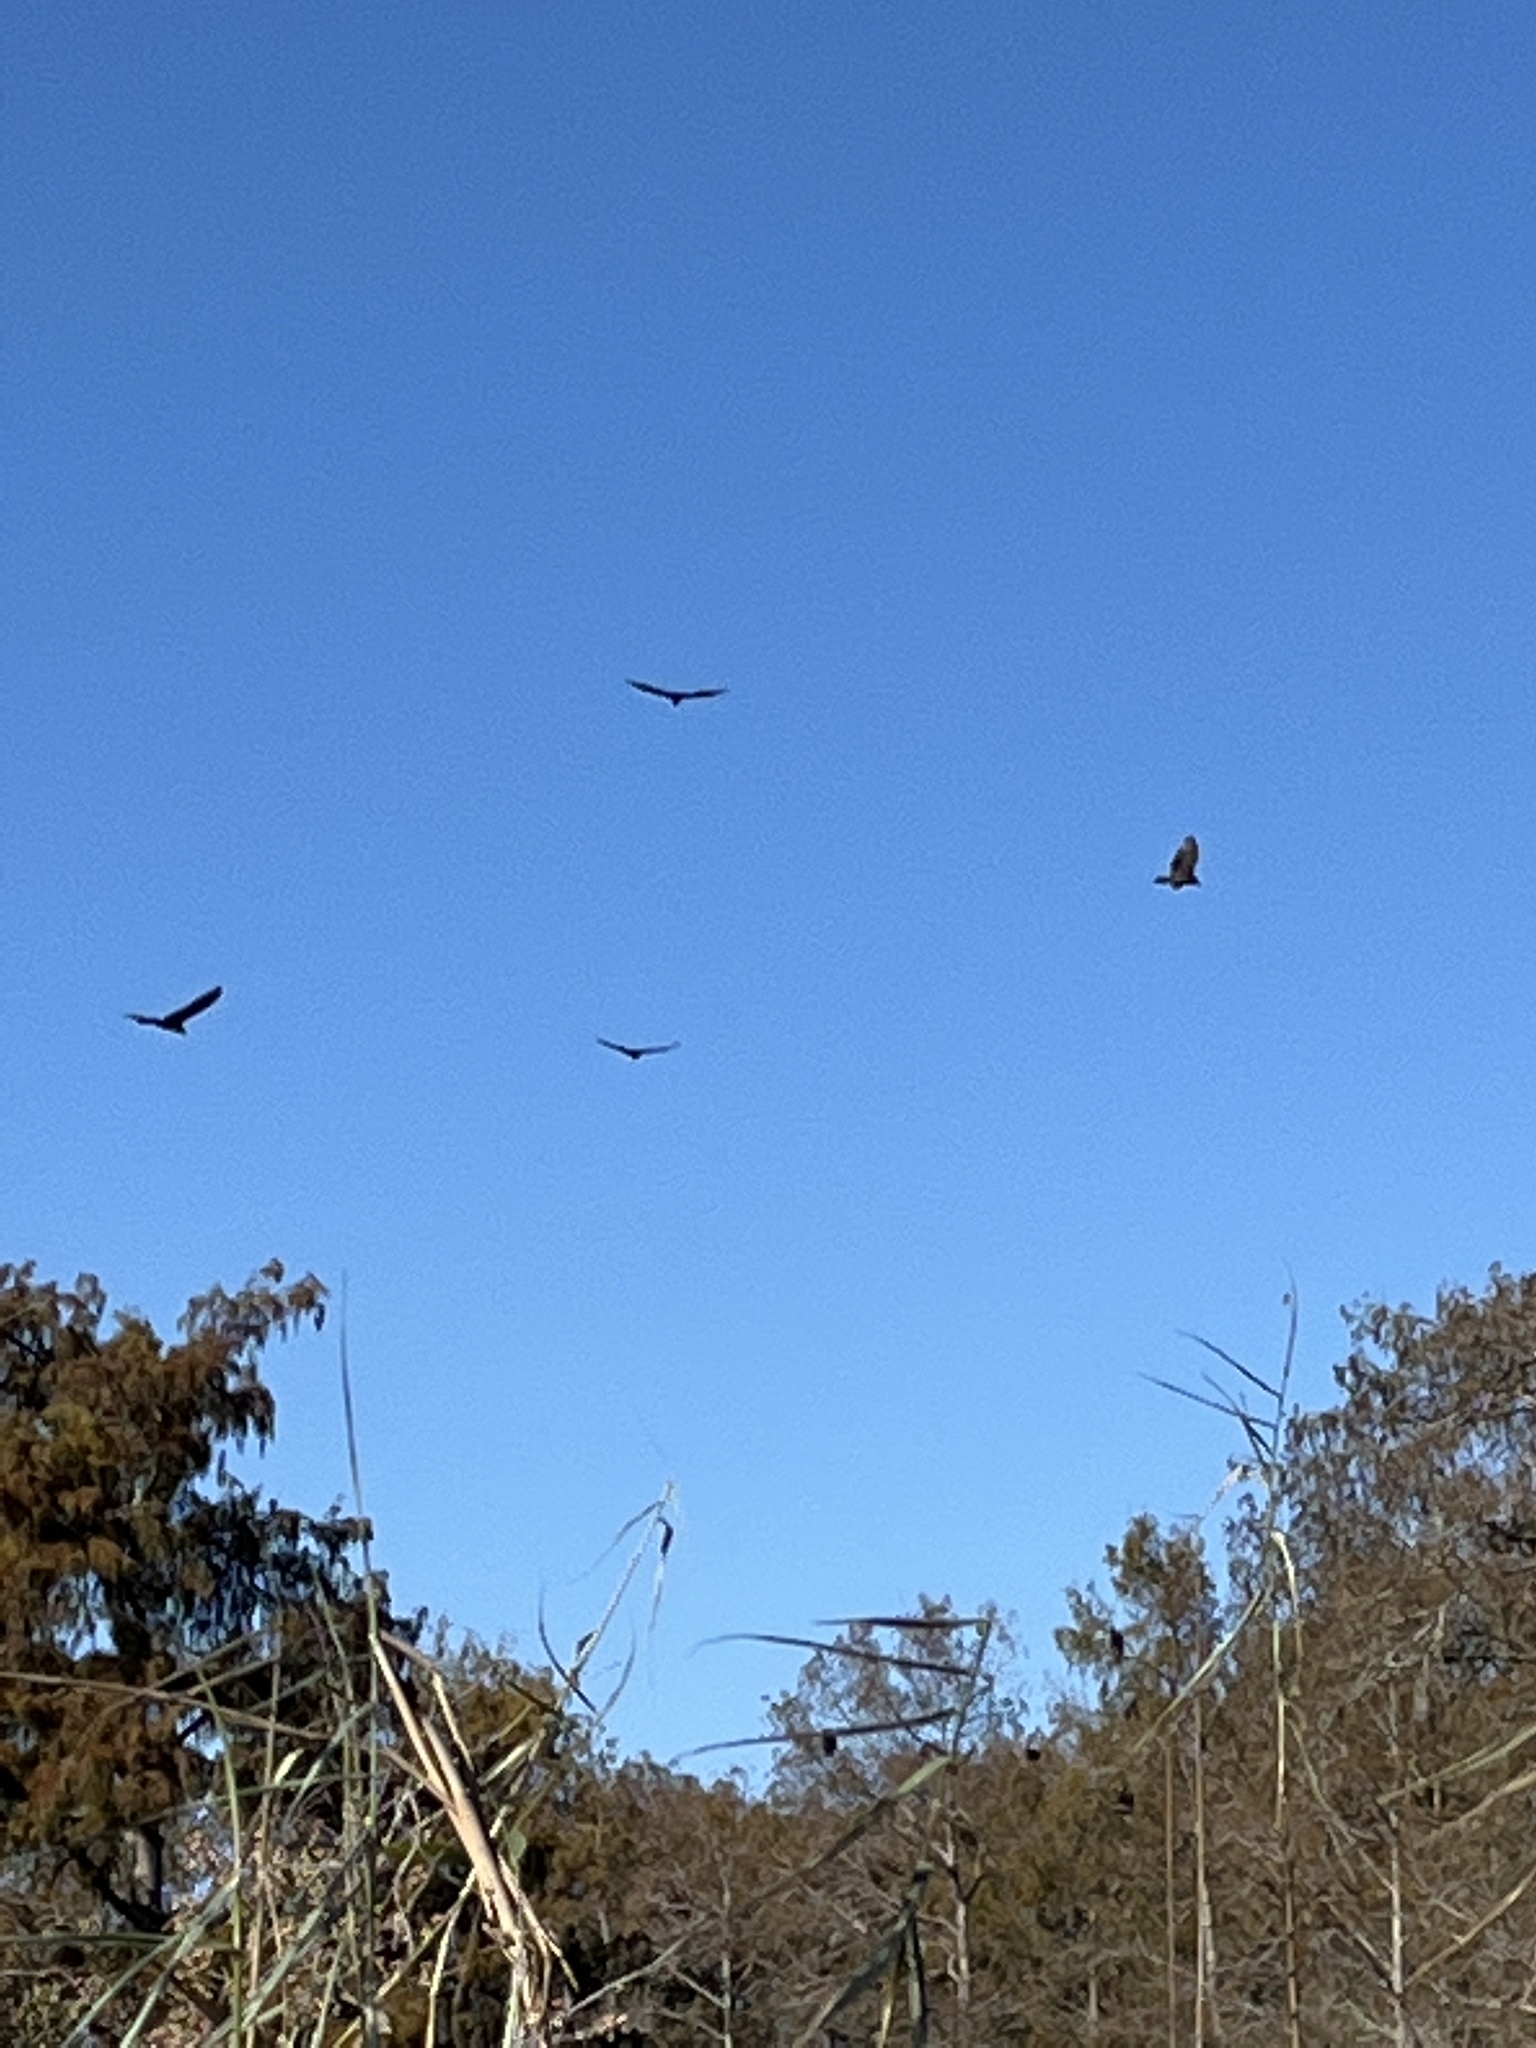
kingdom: Animalia
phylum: Chordata
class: Aves
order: Accipitriformes
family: Cathartidae
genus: Cathartes
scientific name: Cathartes aura
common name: Turkey vulture
